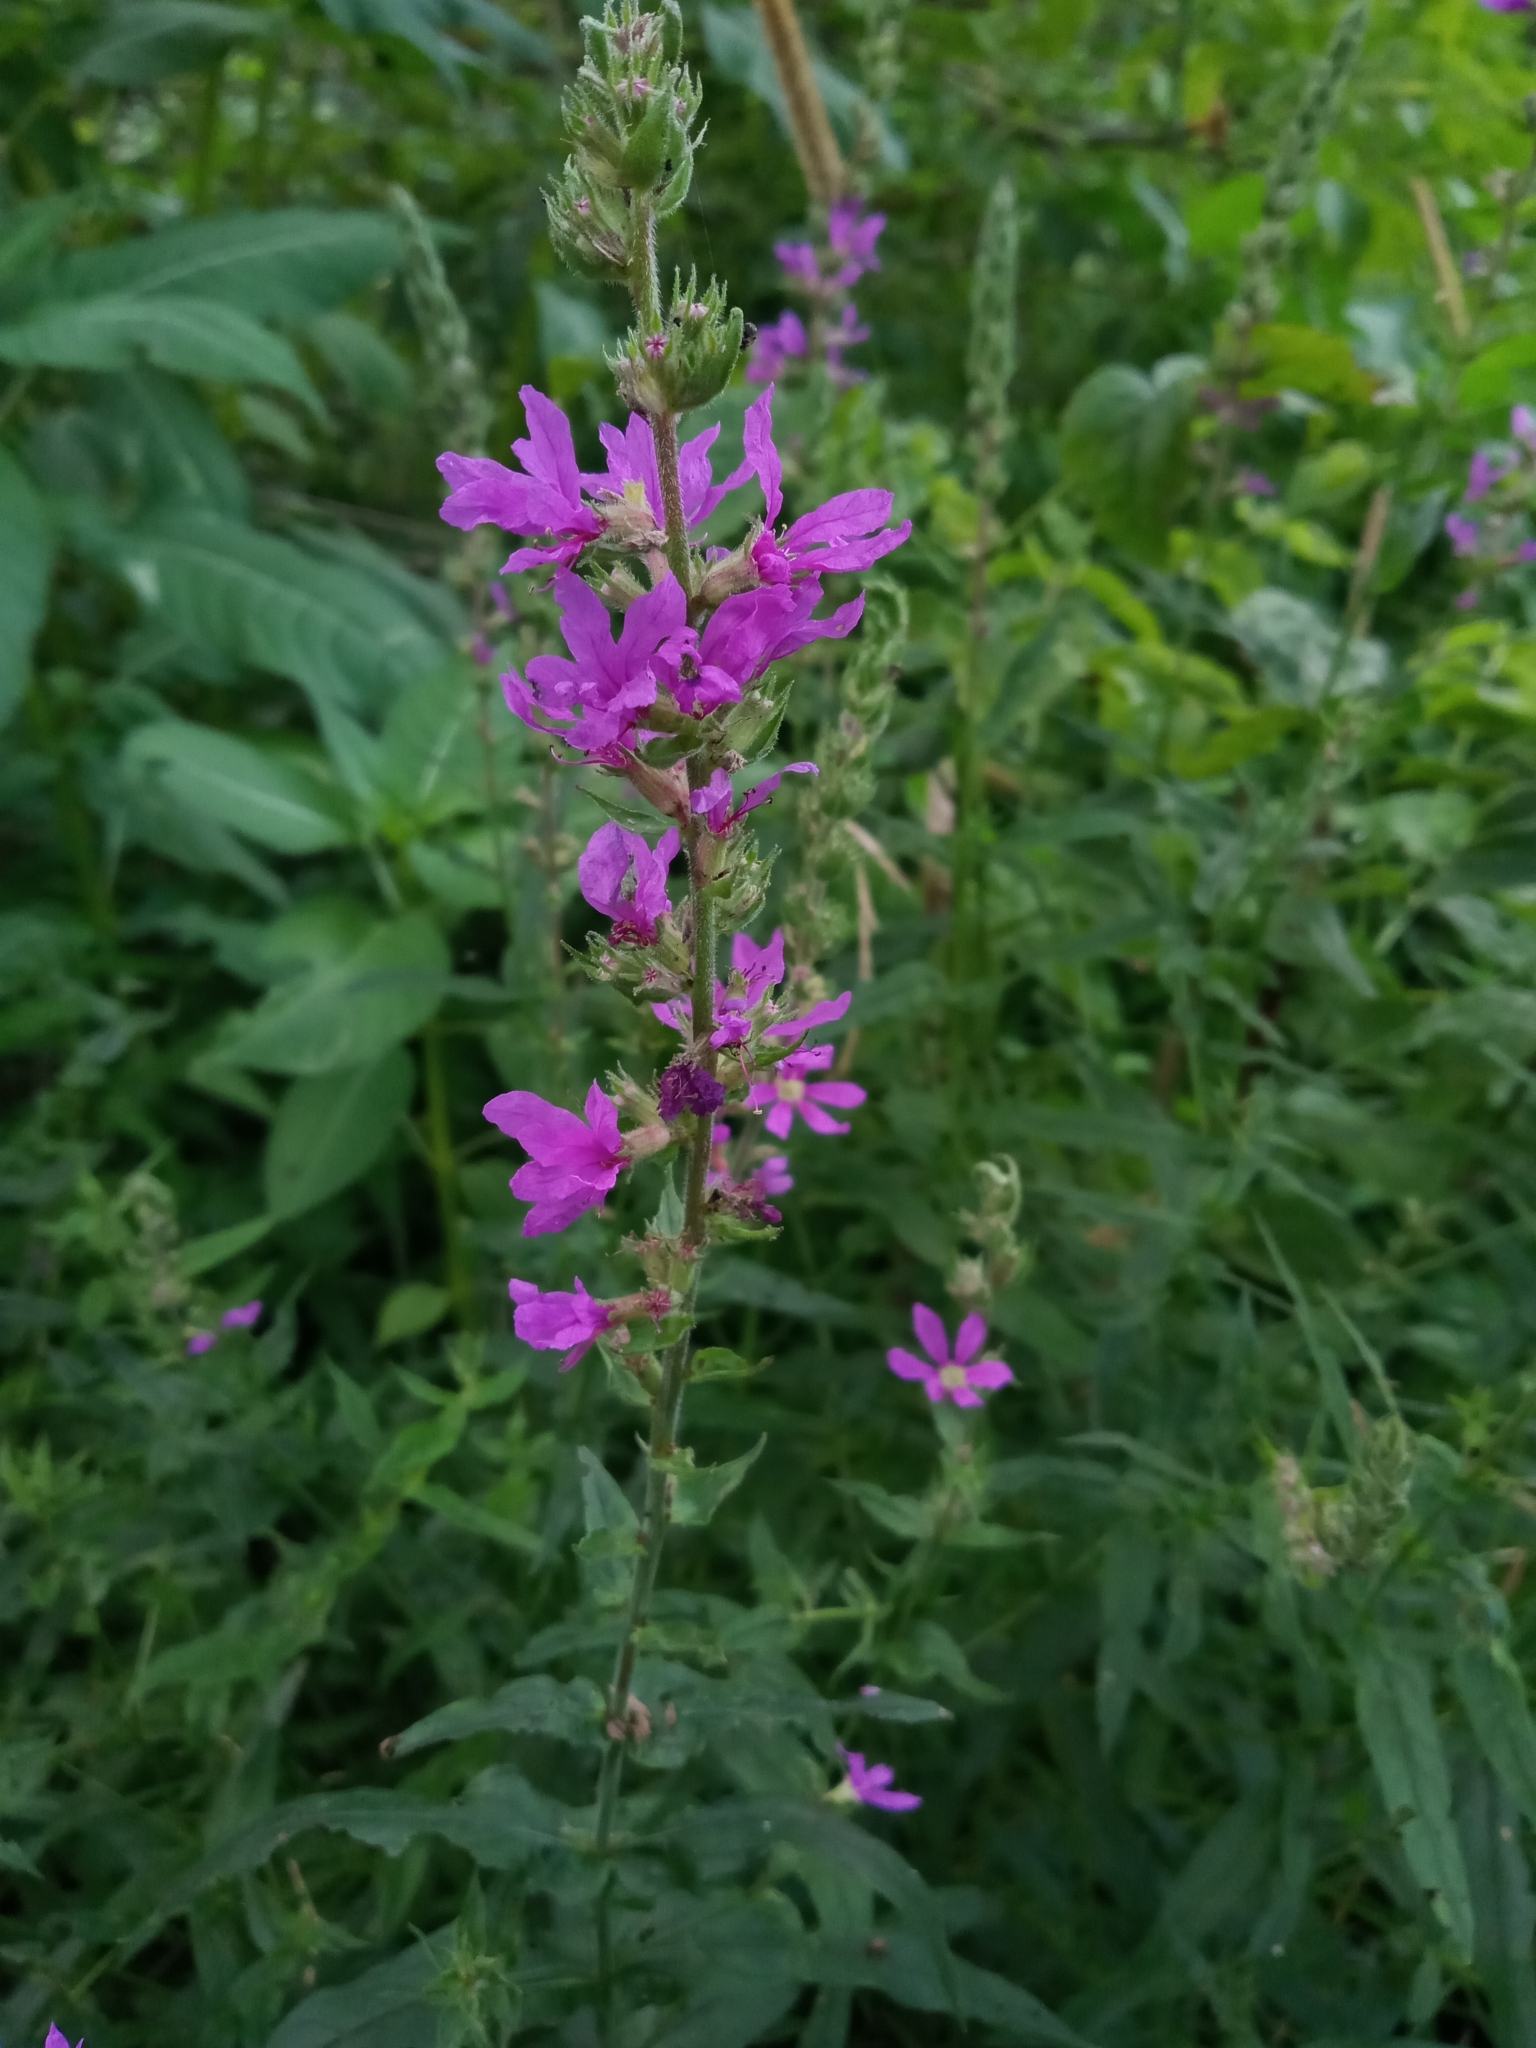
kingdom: Plantae
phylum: Tracheophyta
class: Magnoliopsida
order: Myrtales
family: Lythraceae
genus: Lythrum
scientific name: Lythrum salicaria
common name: Purple loosestrife
